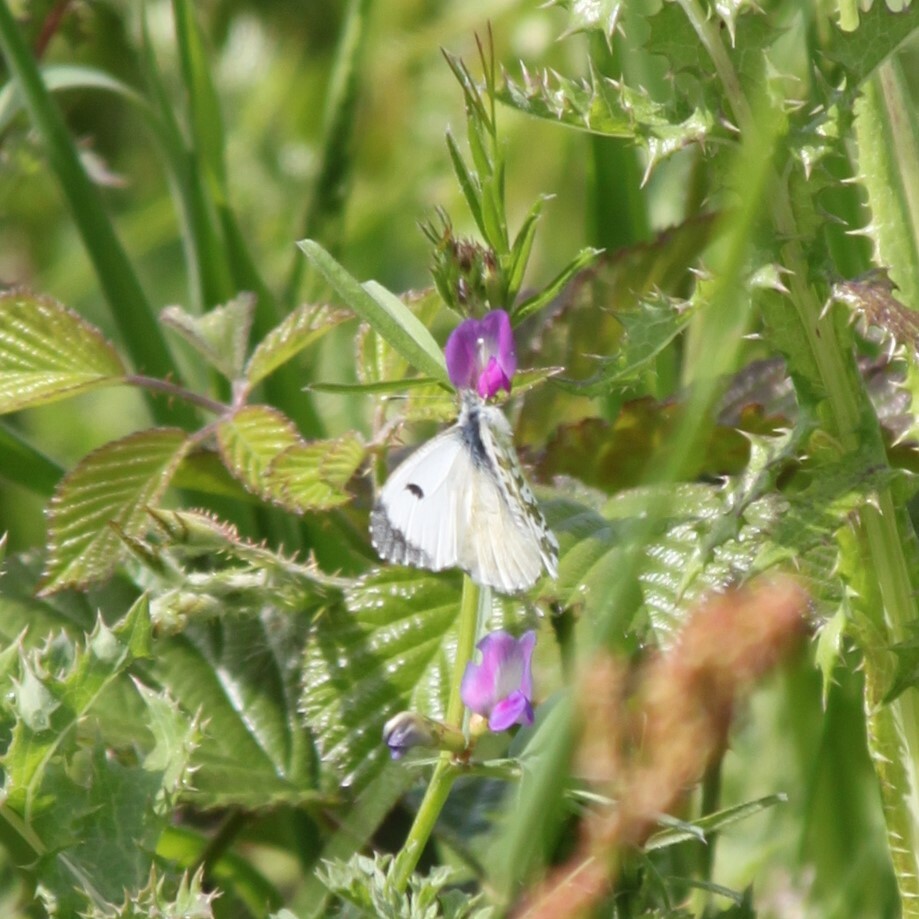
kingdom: Animalia
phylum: Arthropoda
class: Insecta
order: Lepidoptera
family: Pieridae
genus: Anthocharis
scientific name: Anthocharis cardamines
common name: Orange-tip
